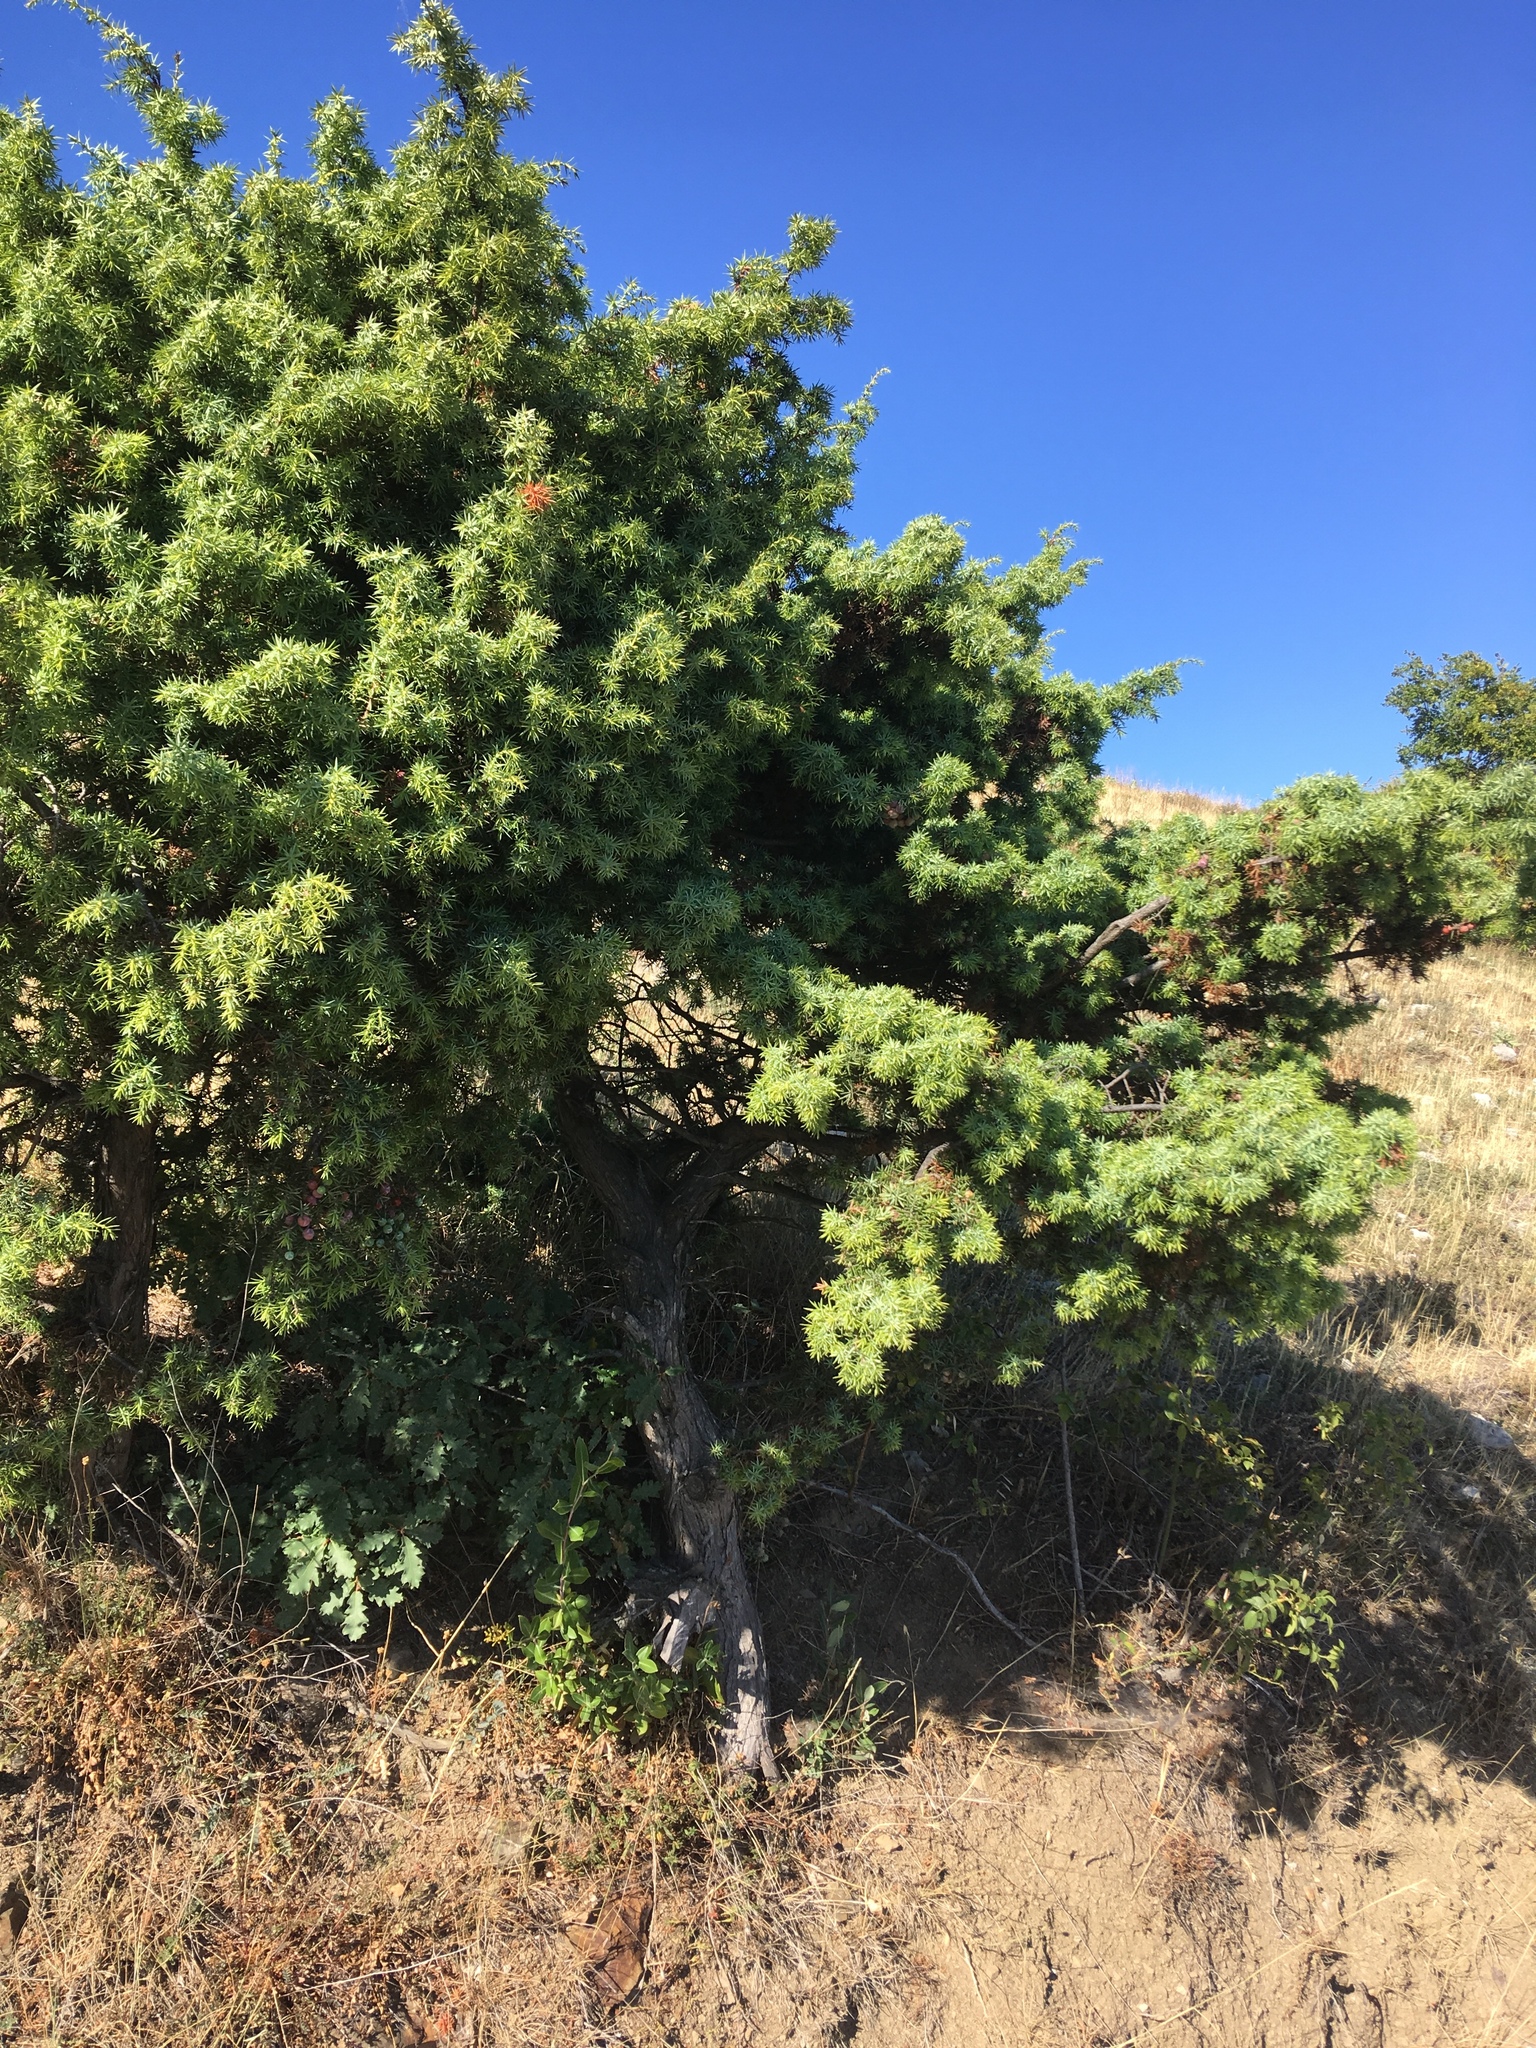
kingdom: Plantae
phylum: Tracheophyta
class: Pinopsida
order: Pinales
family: Cupressaceae
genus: Juniperus
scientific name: Juniperus oxycedrus
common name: Prickly juniper
